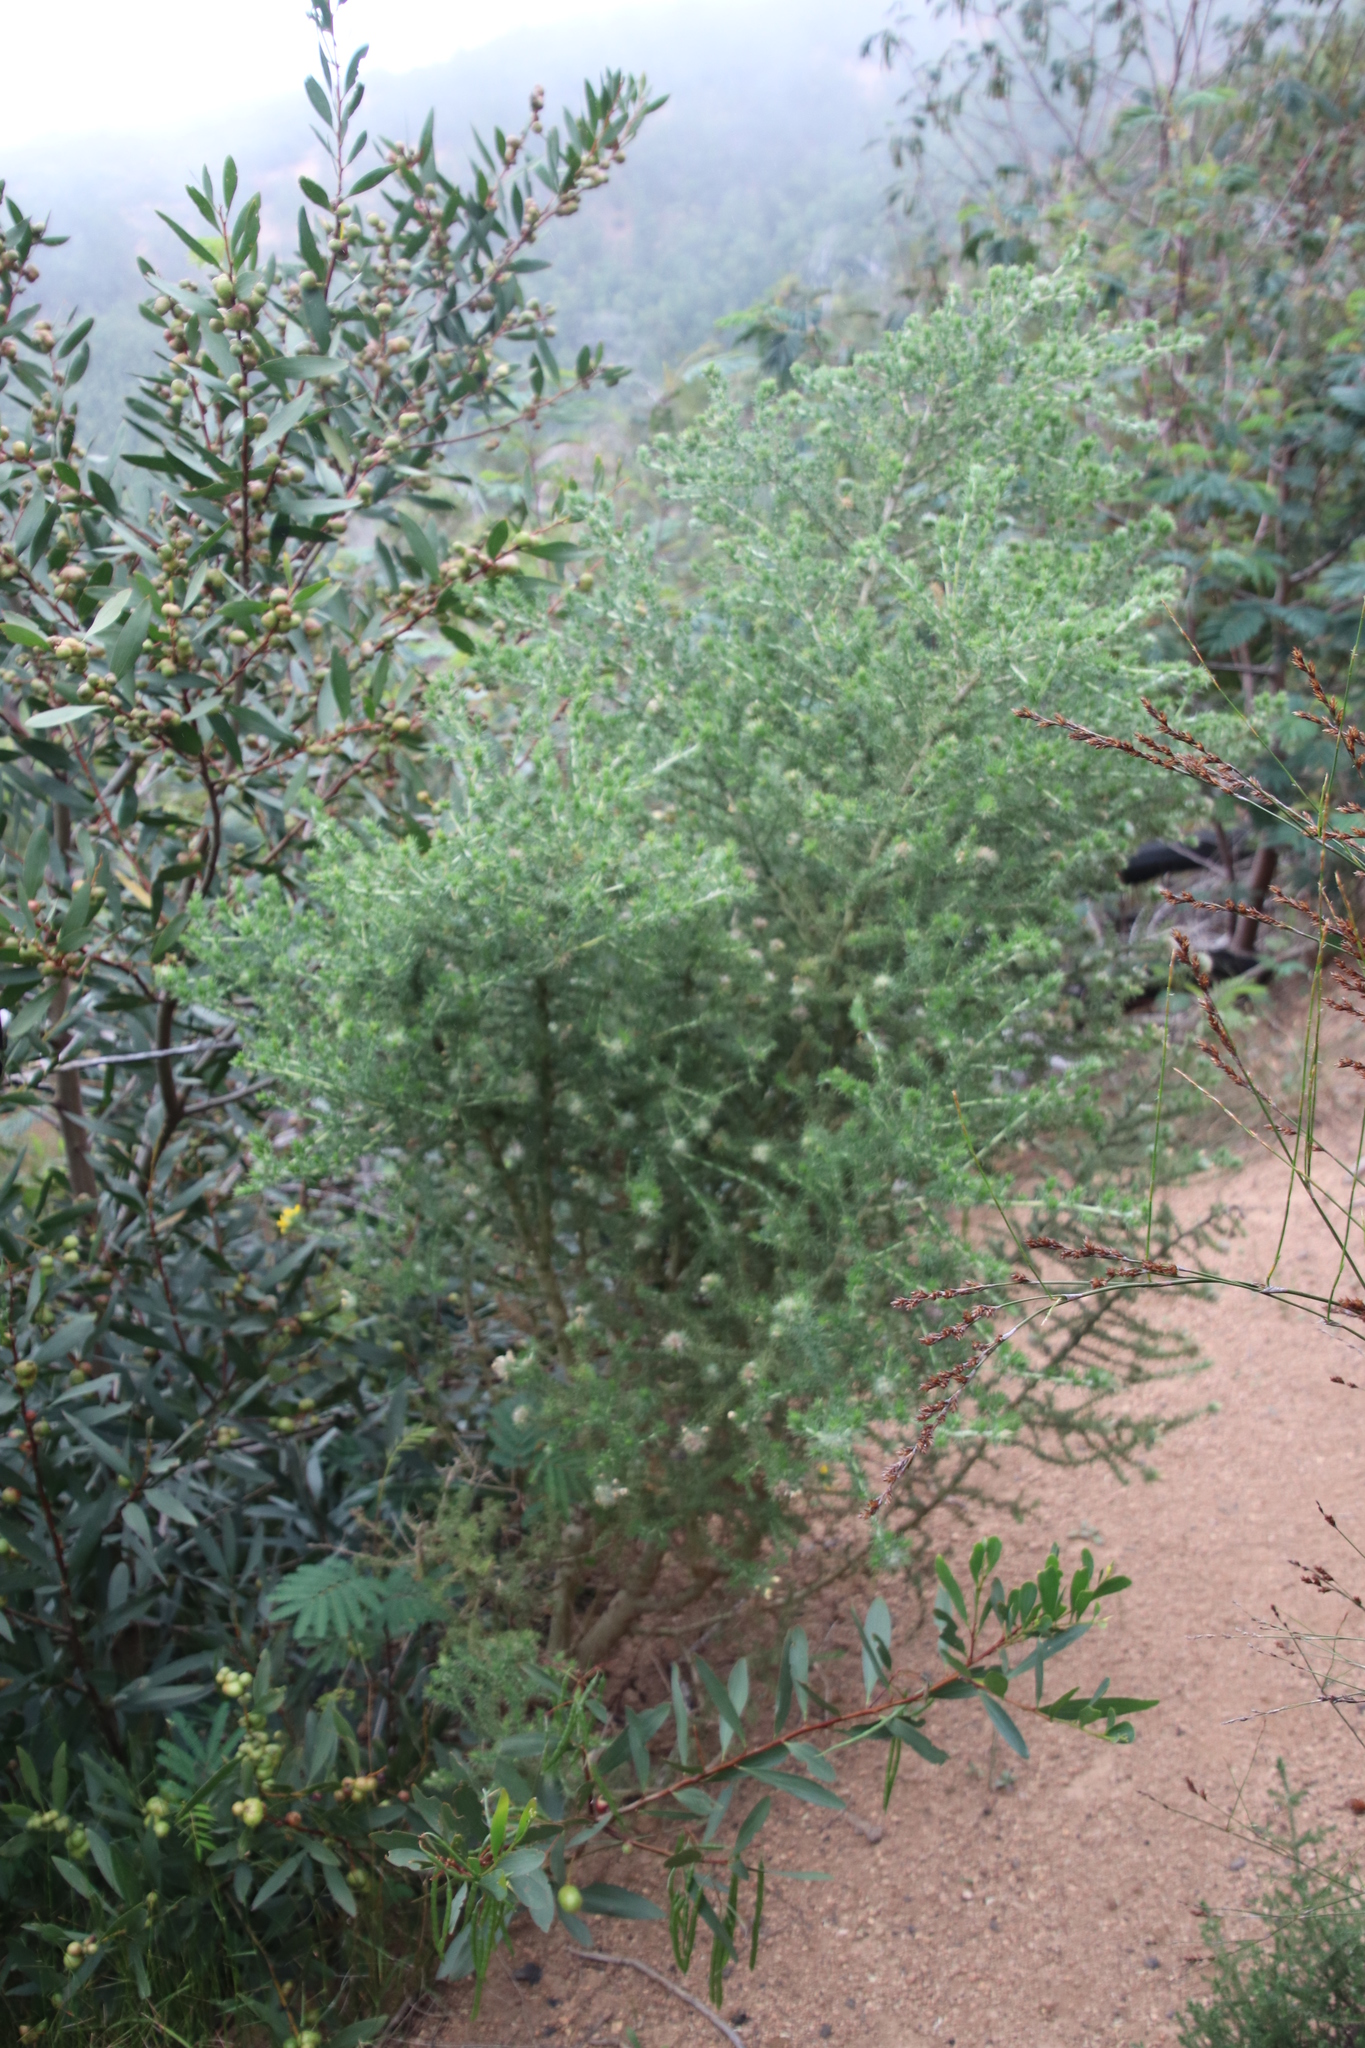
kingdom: Plantae
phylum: Tracheophyta
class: Magnoliopsida
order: Fabales
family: Fabaceae
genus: Aspalathus
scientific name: Aspalathus chenopoda
